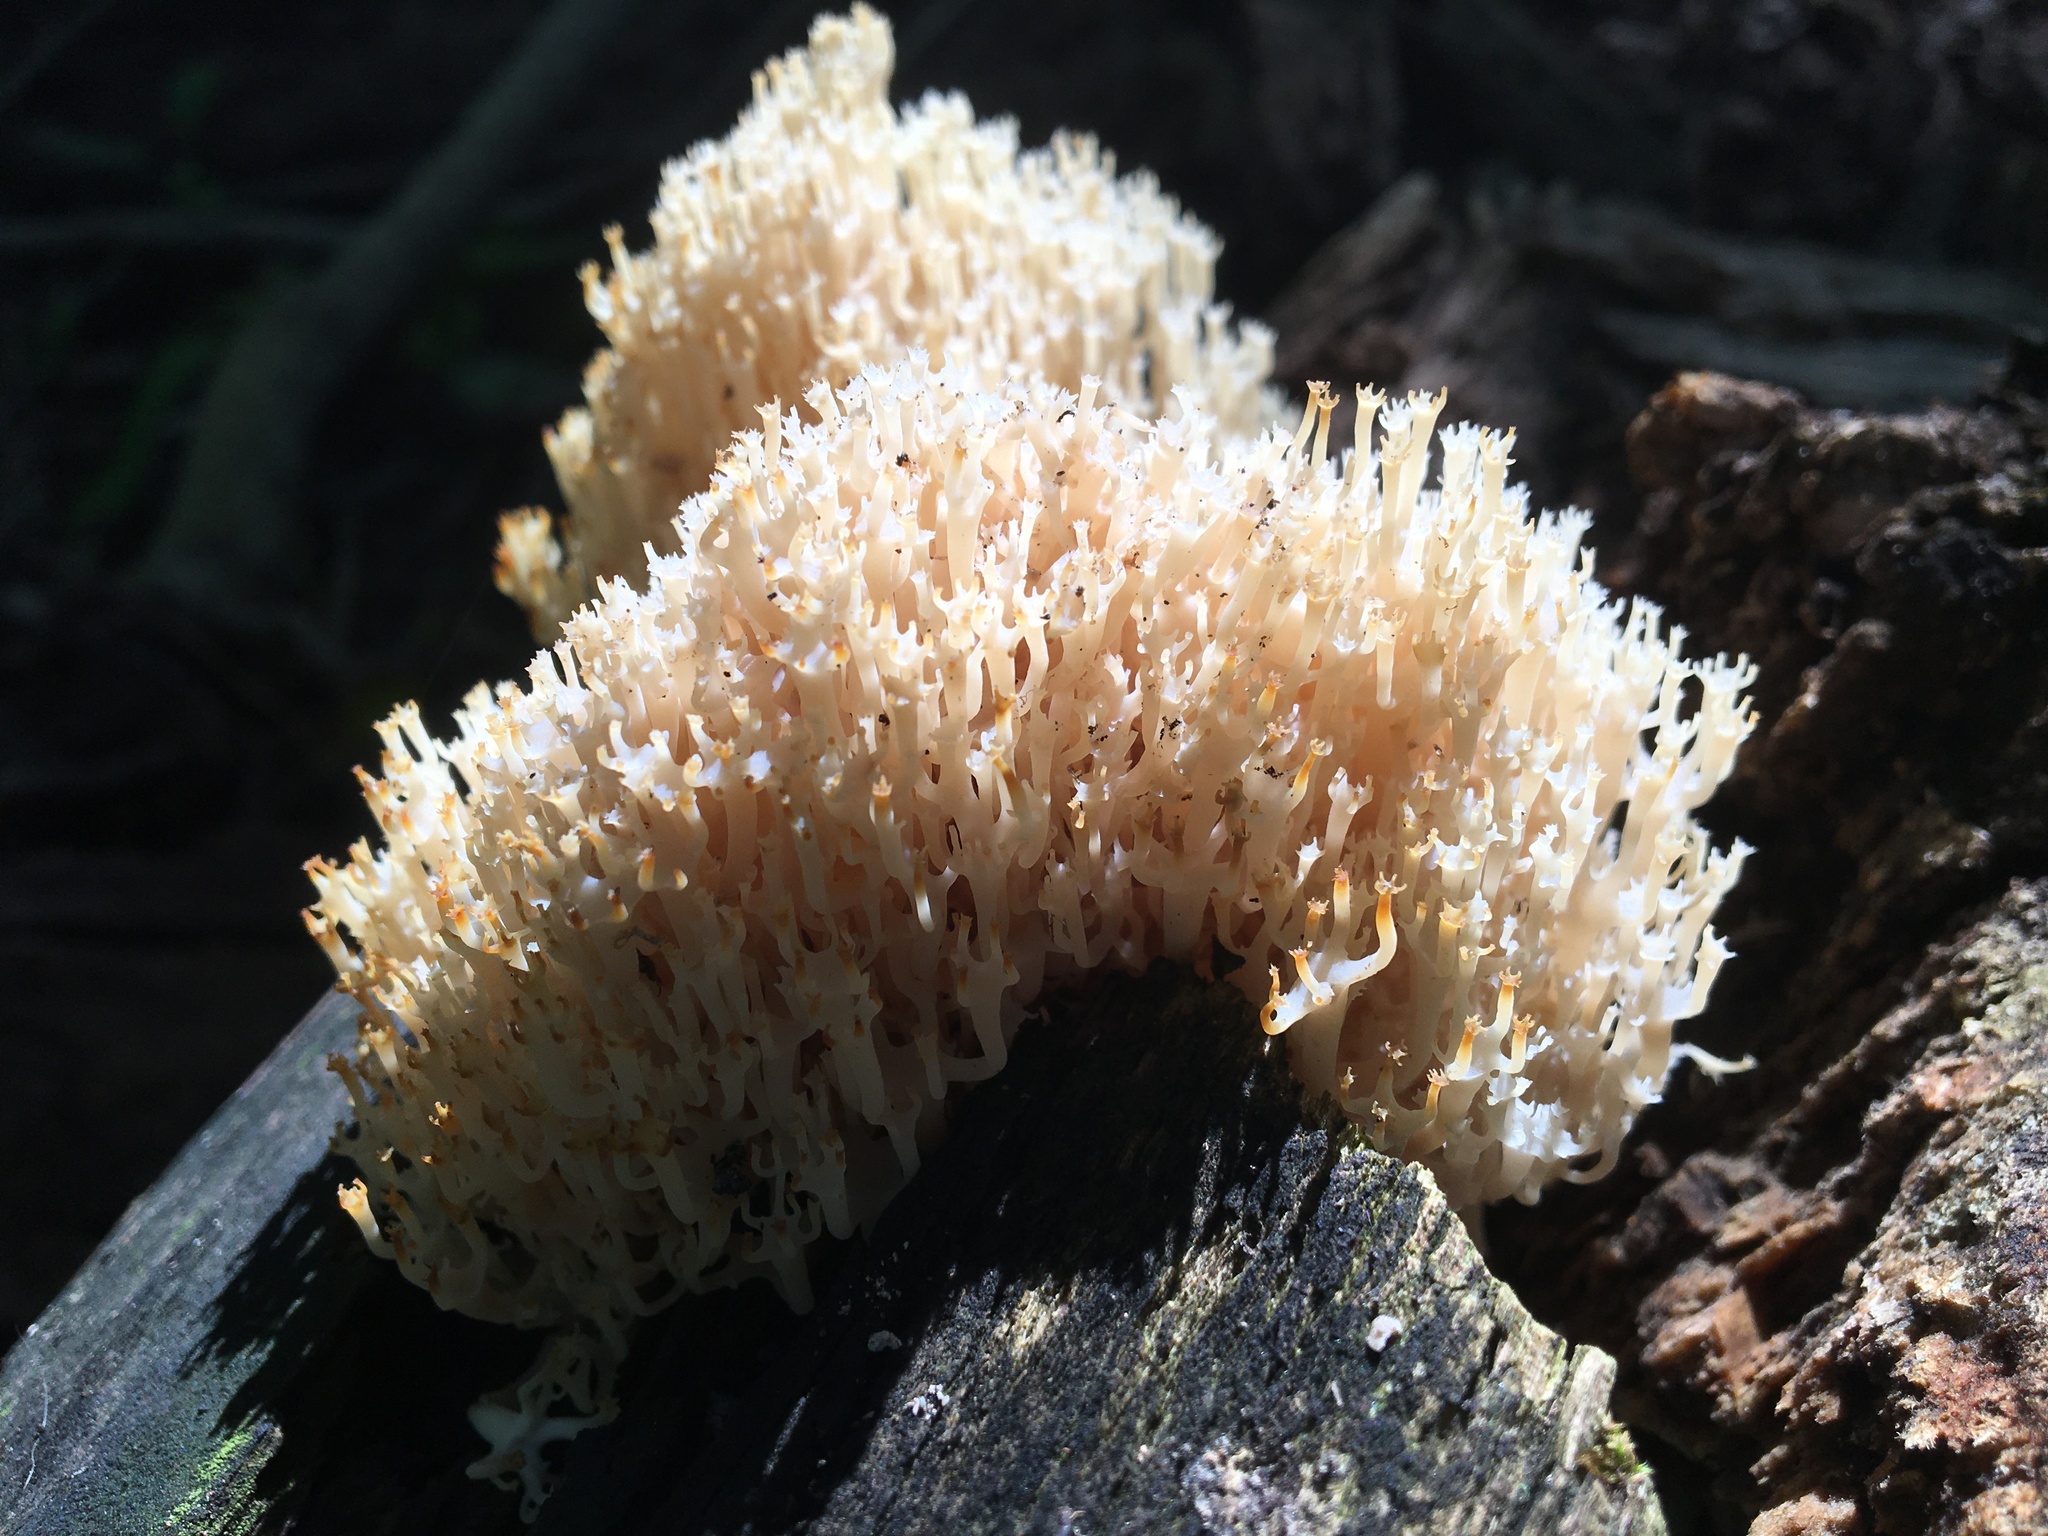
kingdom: Fungi
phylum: Basidiomycota
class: Agaricomycetes
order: Russulales
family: Auriscalpiaceae
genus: Artomyces
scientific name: Artomyces pyxidatus
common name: Crown-tipped coral fungus
